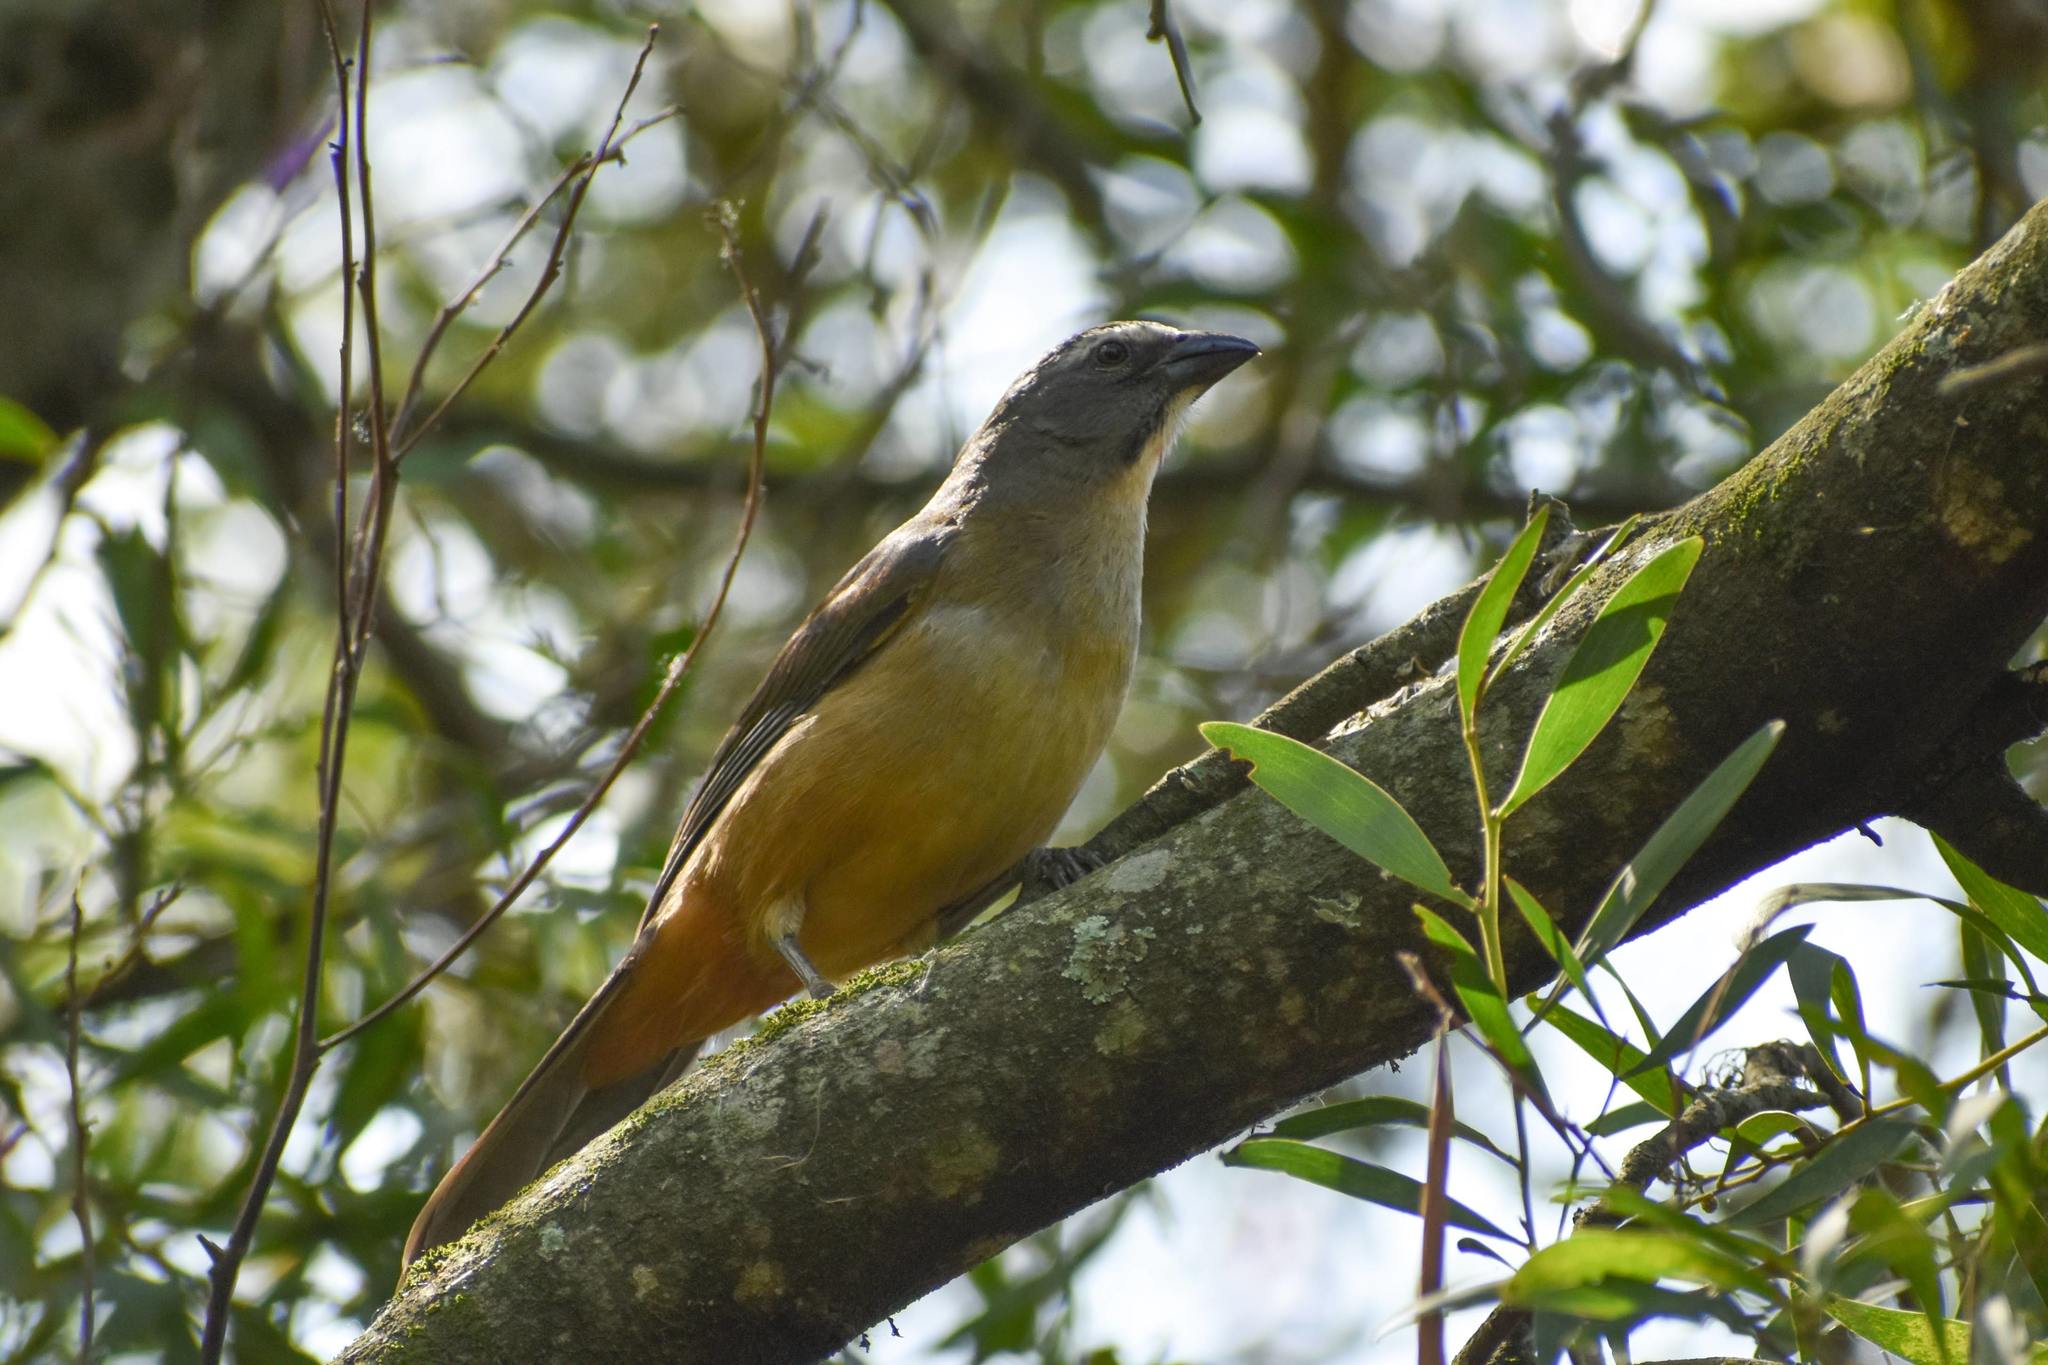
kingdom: Animalia
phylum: Chordata
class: Aves
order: Passeriformes
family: Thraupidae
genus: Saltator
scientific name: Saltator coerulescens
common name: Grayish saltator
